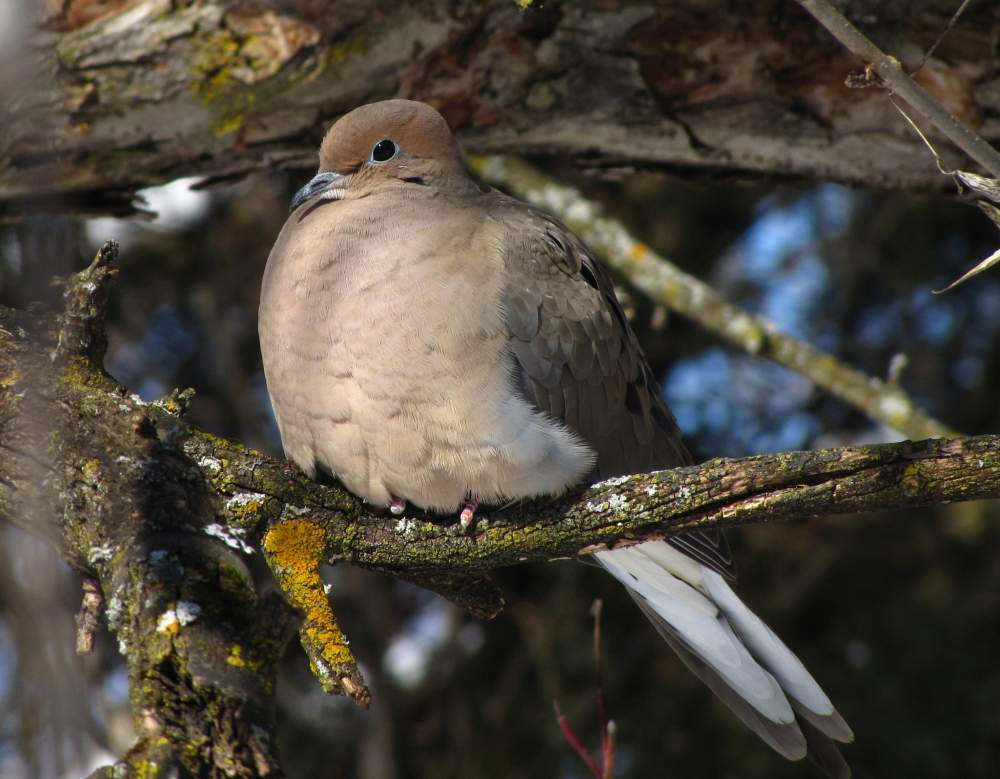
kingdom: Animalia
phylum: Chordata
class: Aves
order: Columbiformes
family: Columbidae
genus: Zenaida
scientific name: Zenaida macroura
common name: Mourning dove
